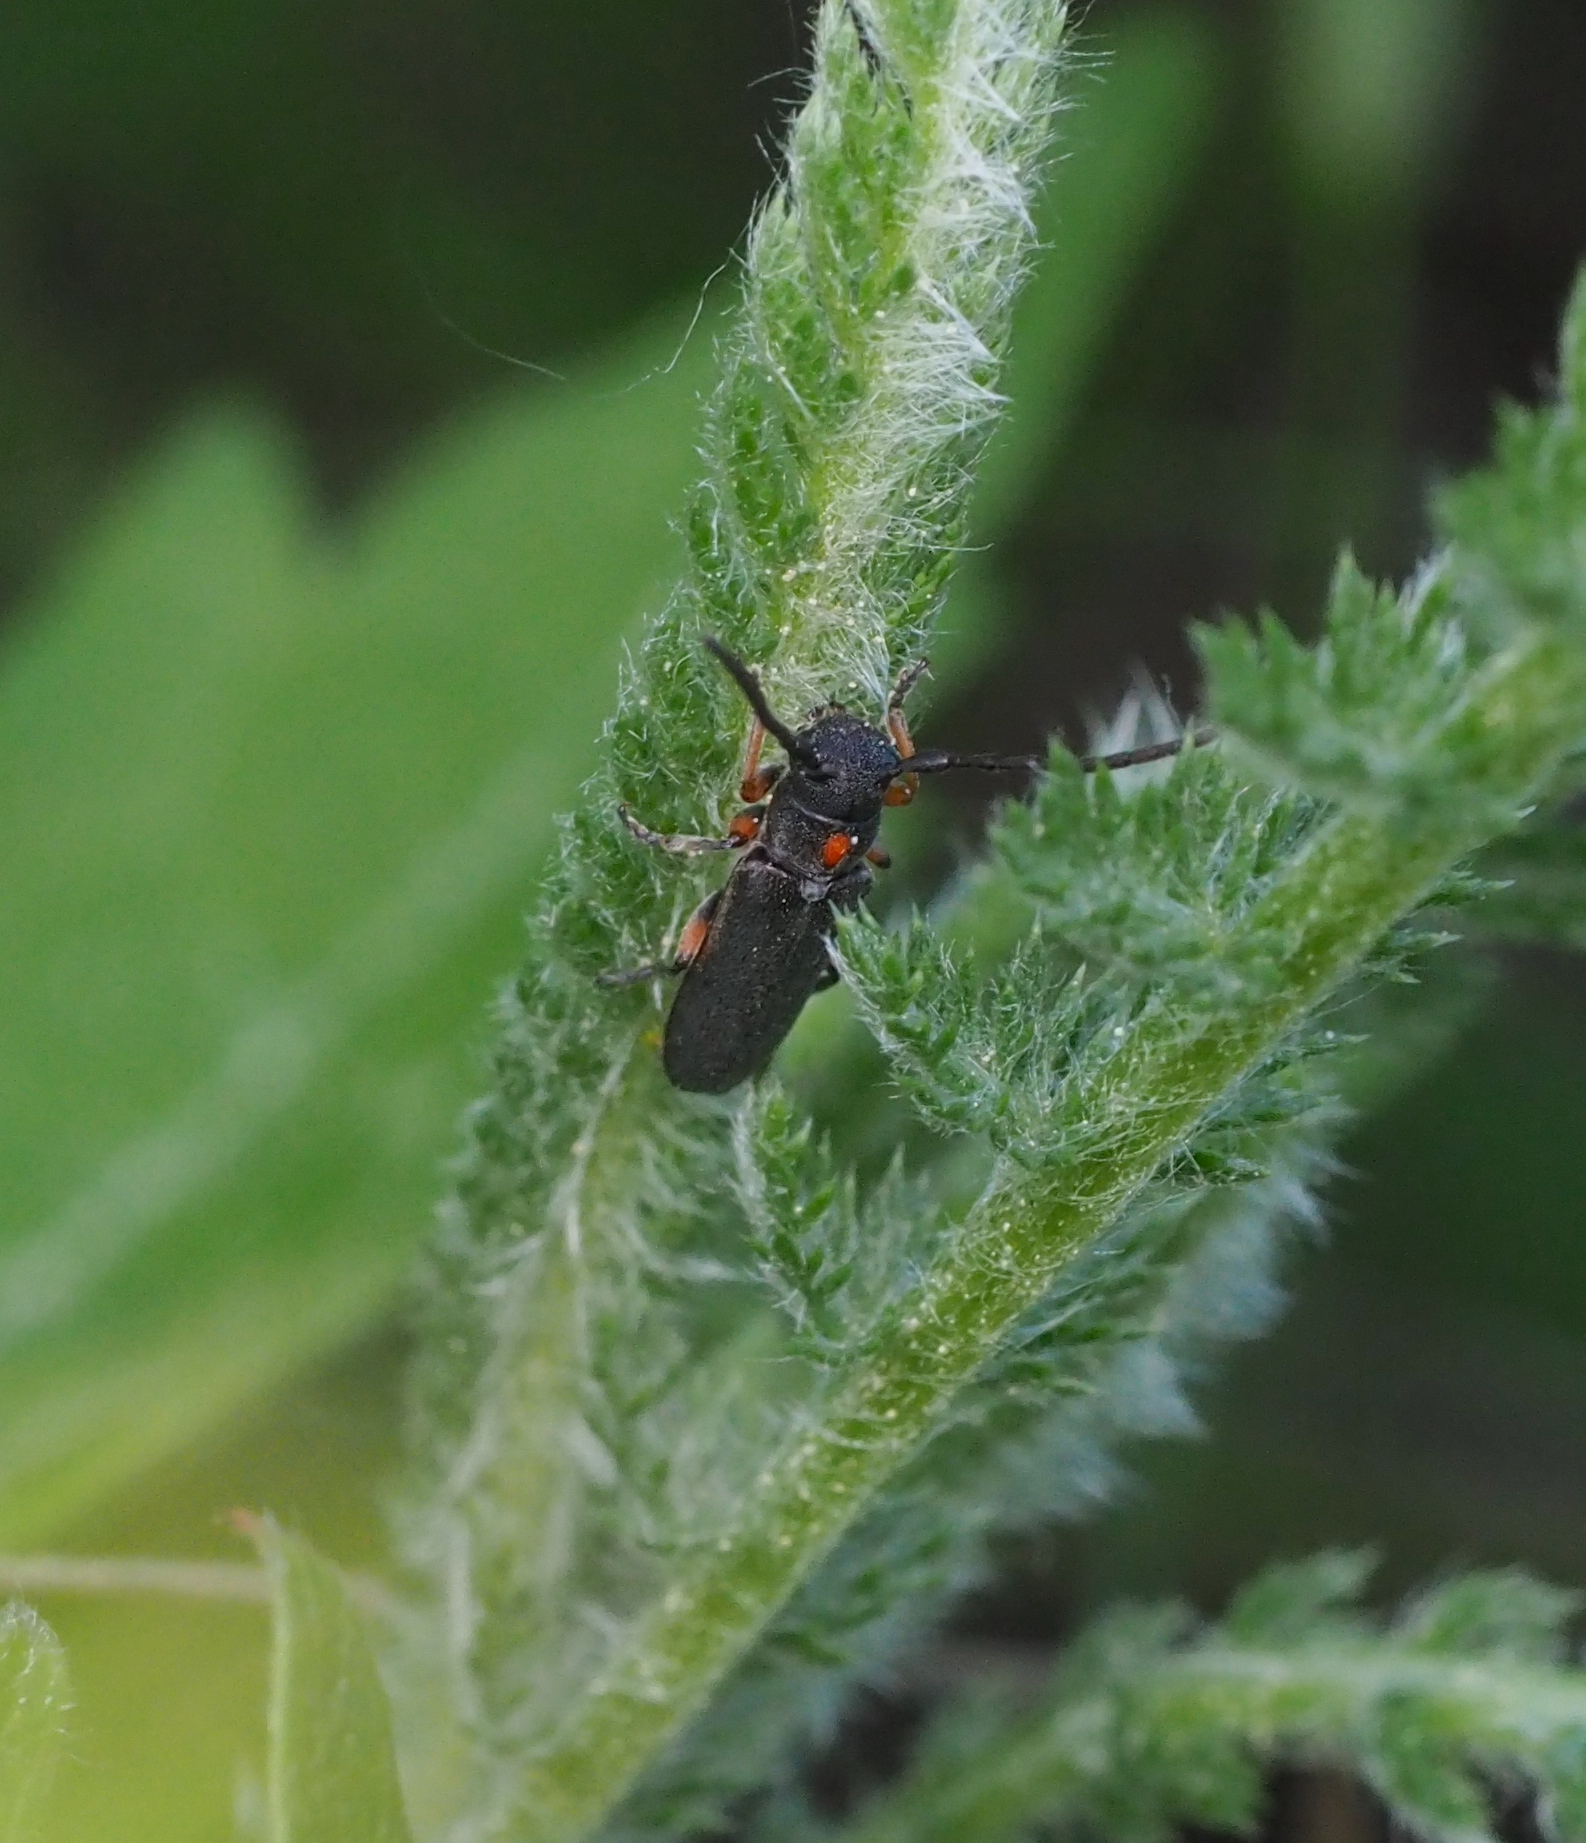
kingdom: Animalia
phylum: Arthropoda
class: Insecta
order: Coleoptera
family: Cerambycidae
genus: Phytoecia
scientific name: Phytoecia pustulata
